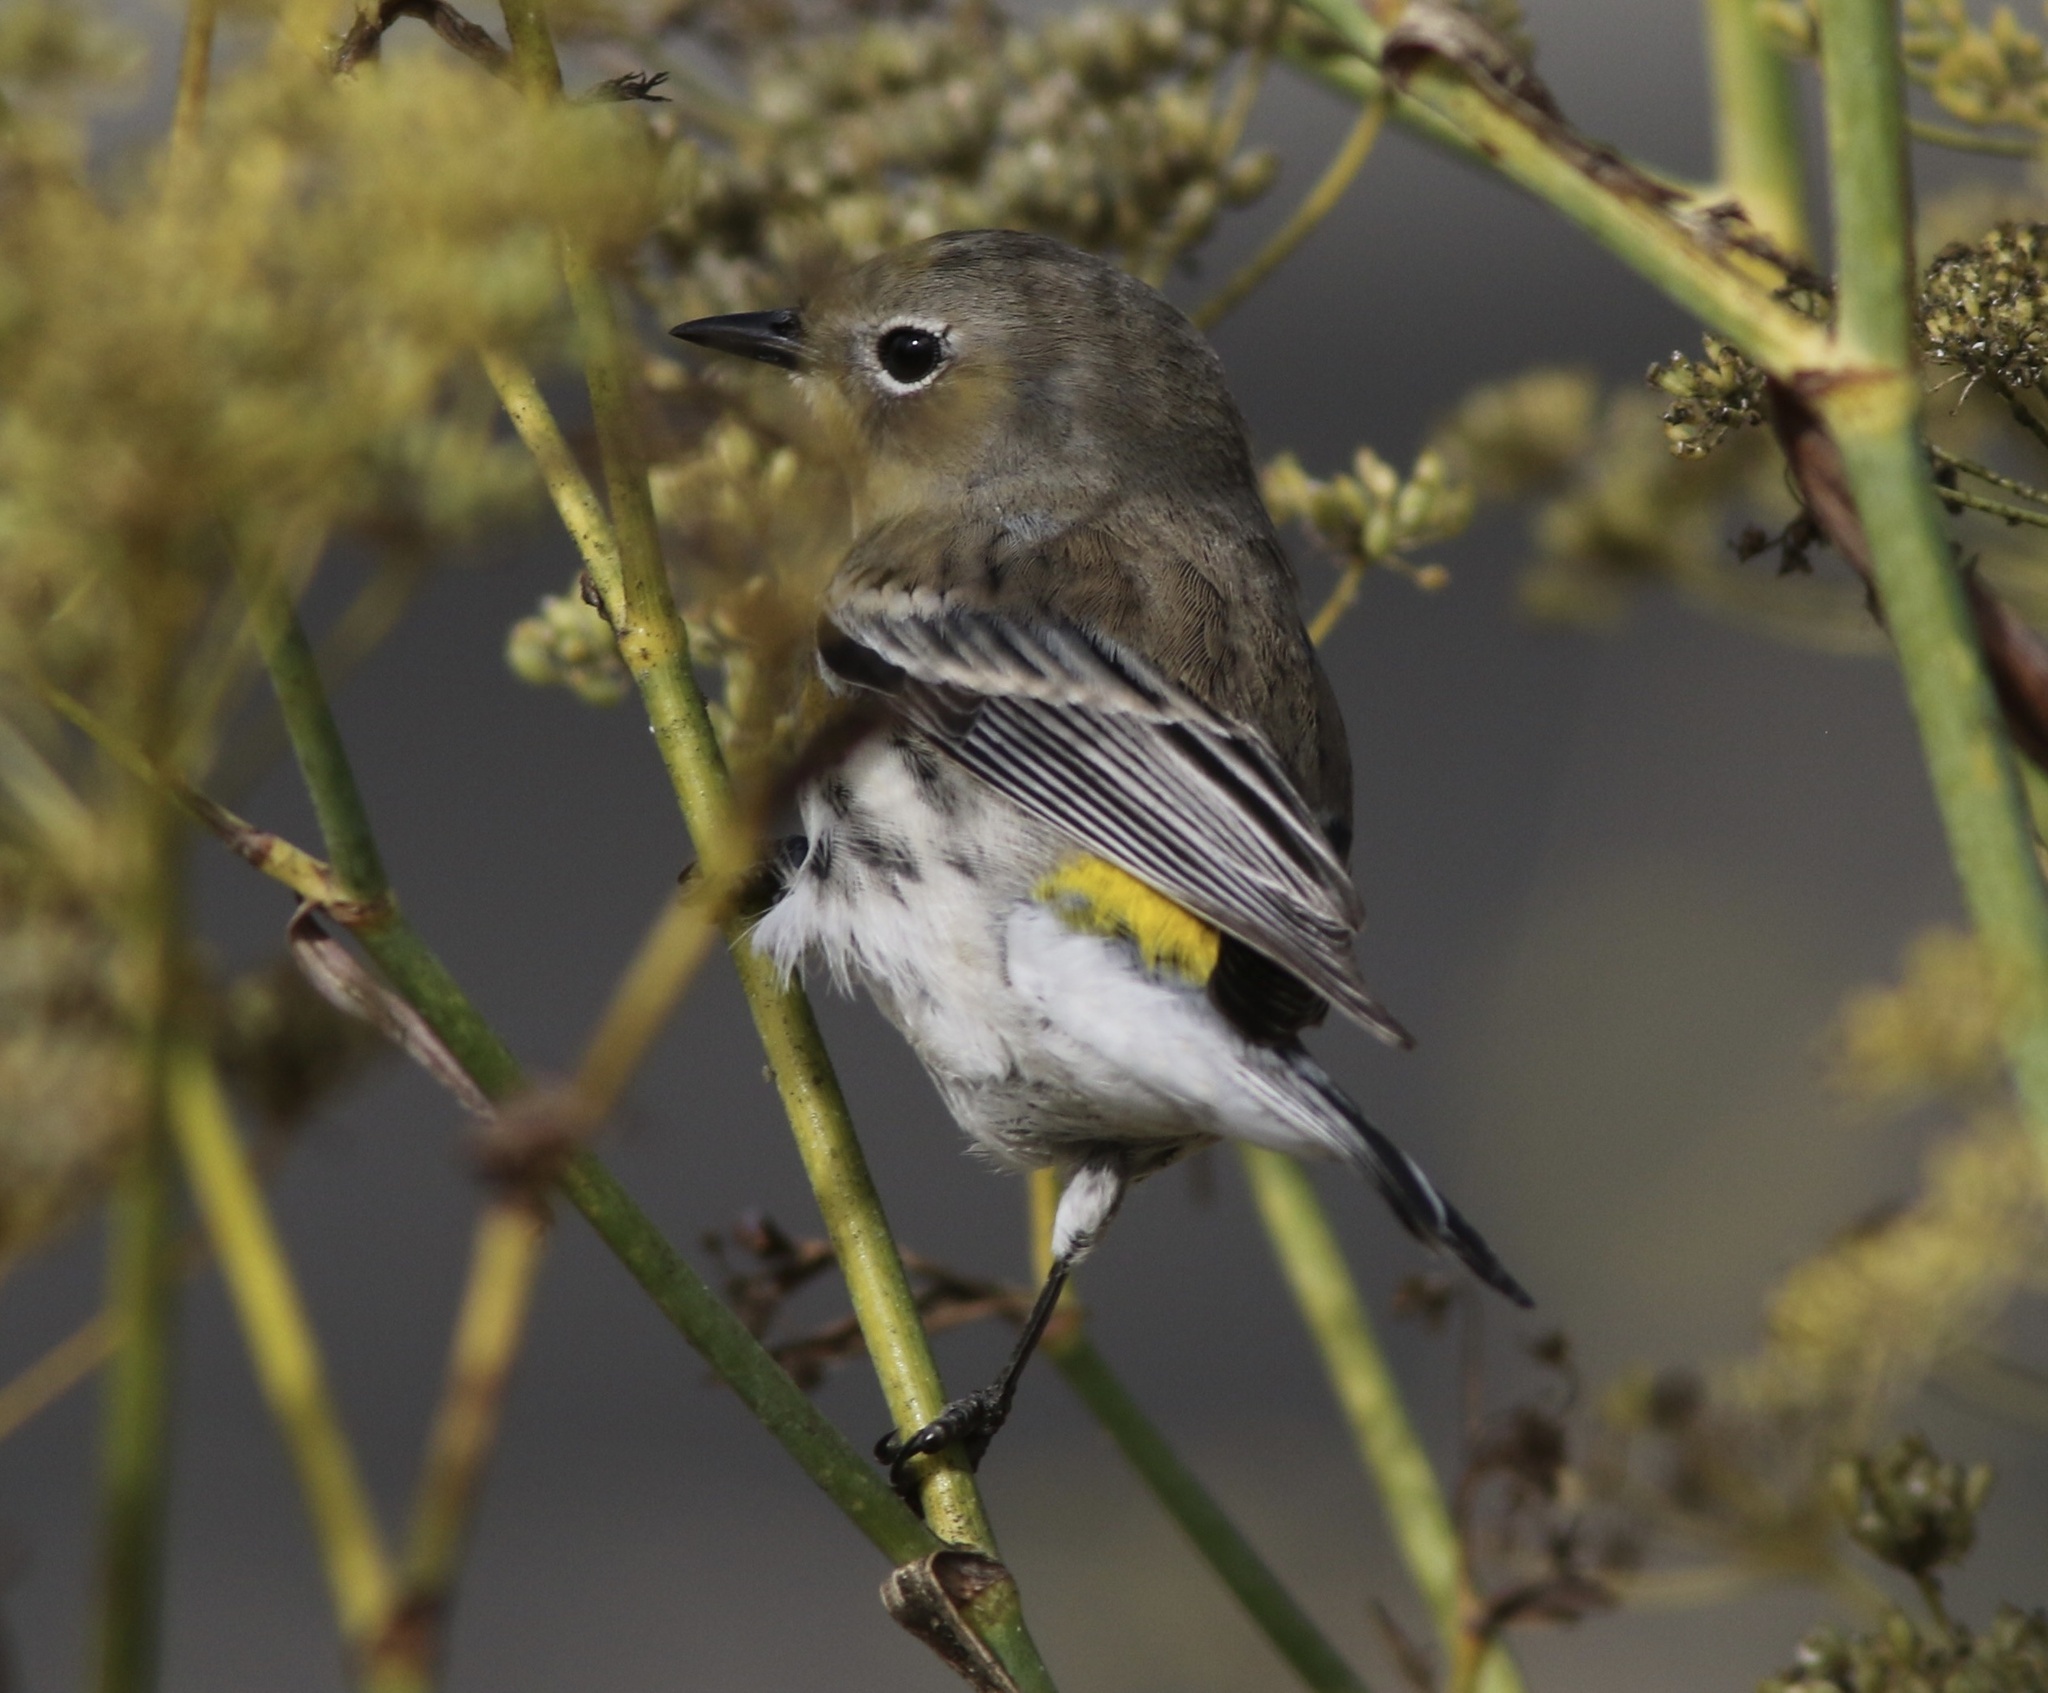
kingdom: Animalia
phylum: Chordata
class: Aves
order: Passeriformes
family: Parulidae
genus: Setophaga
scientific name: Setophaga coronata
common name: Myrtle warbler
